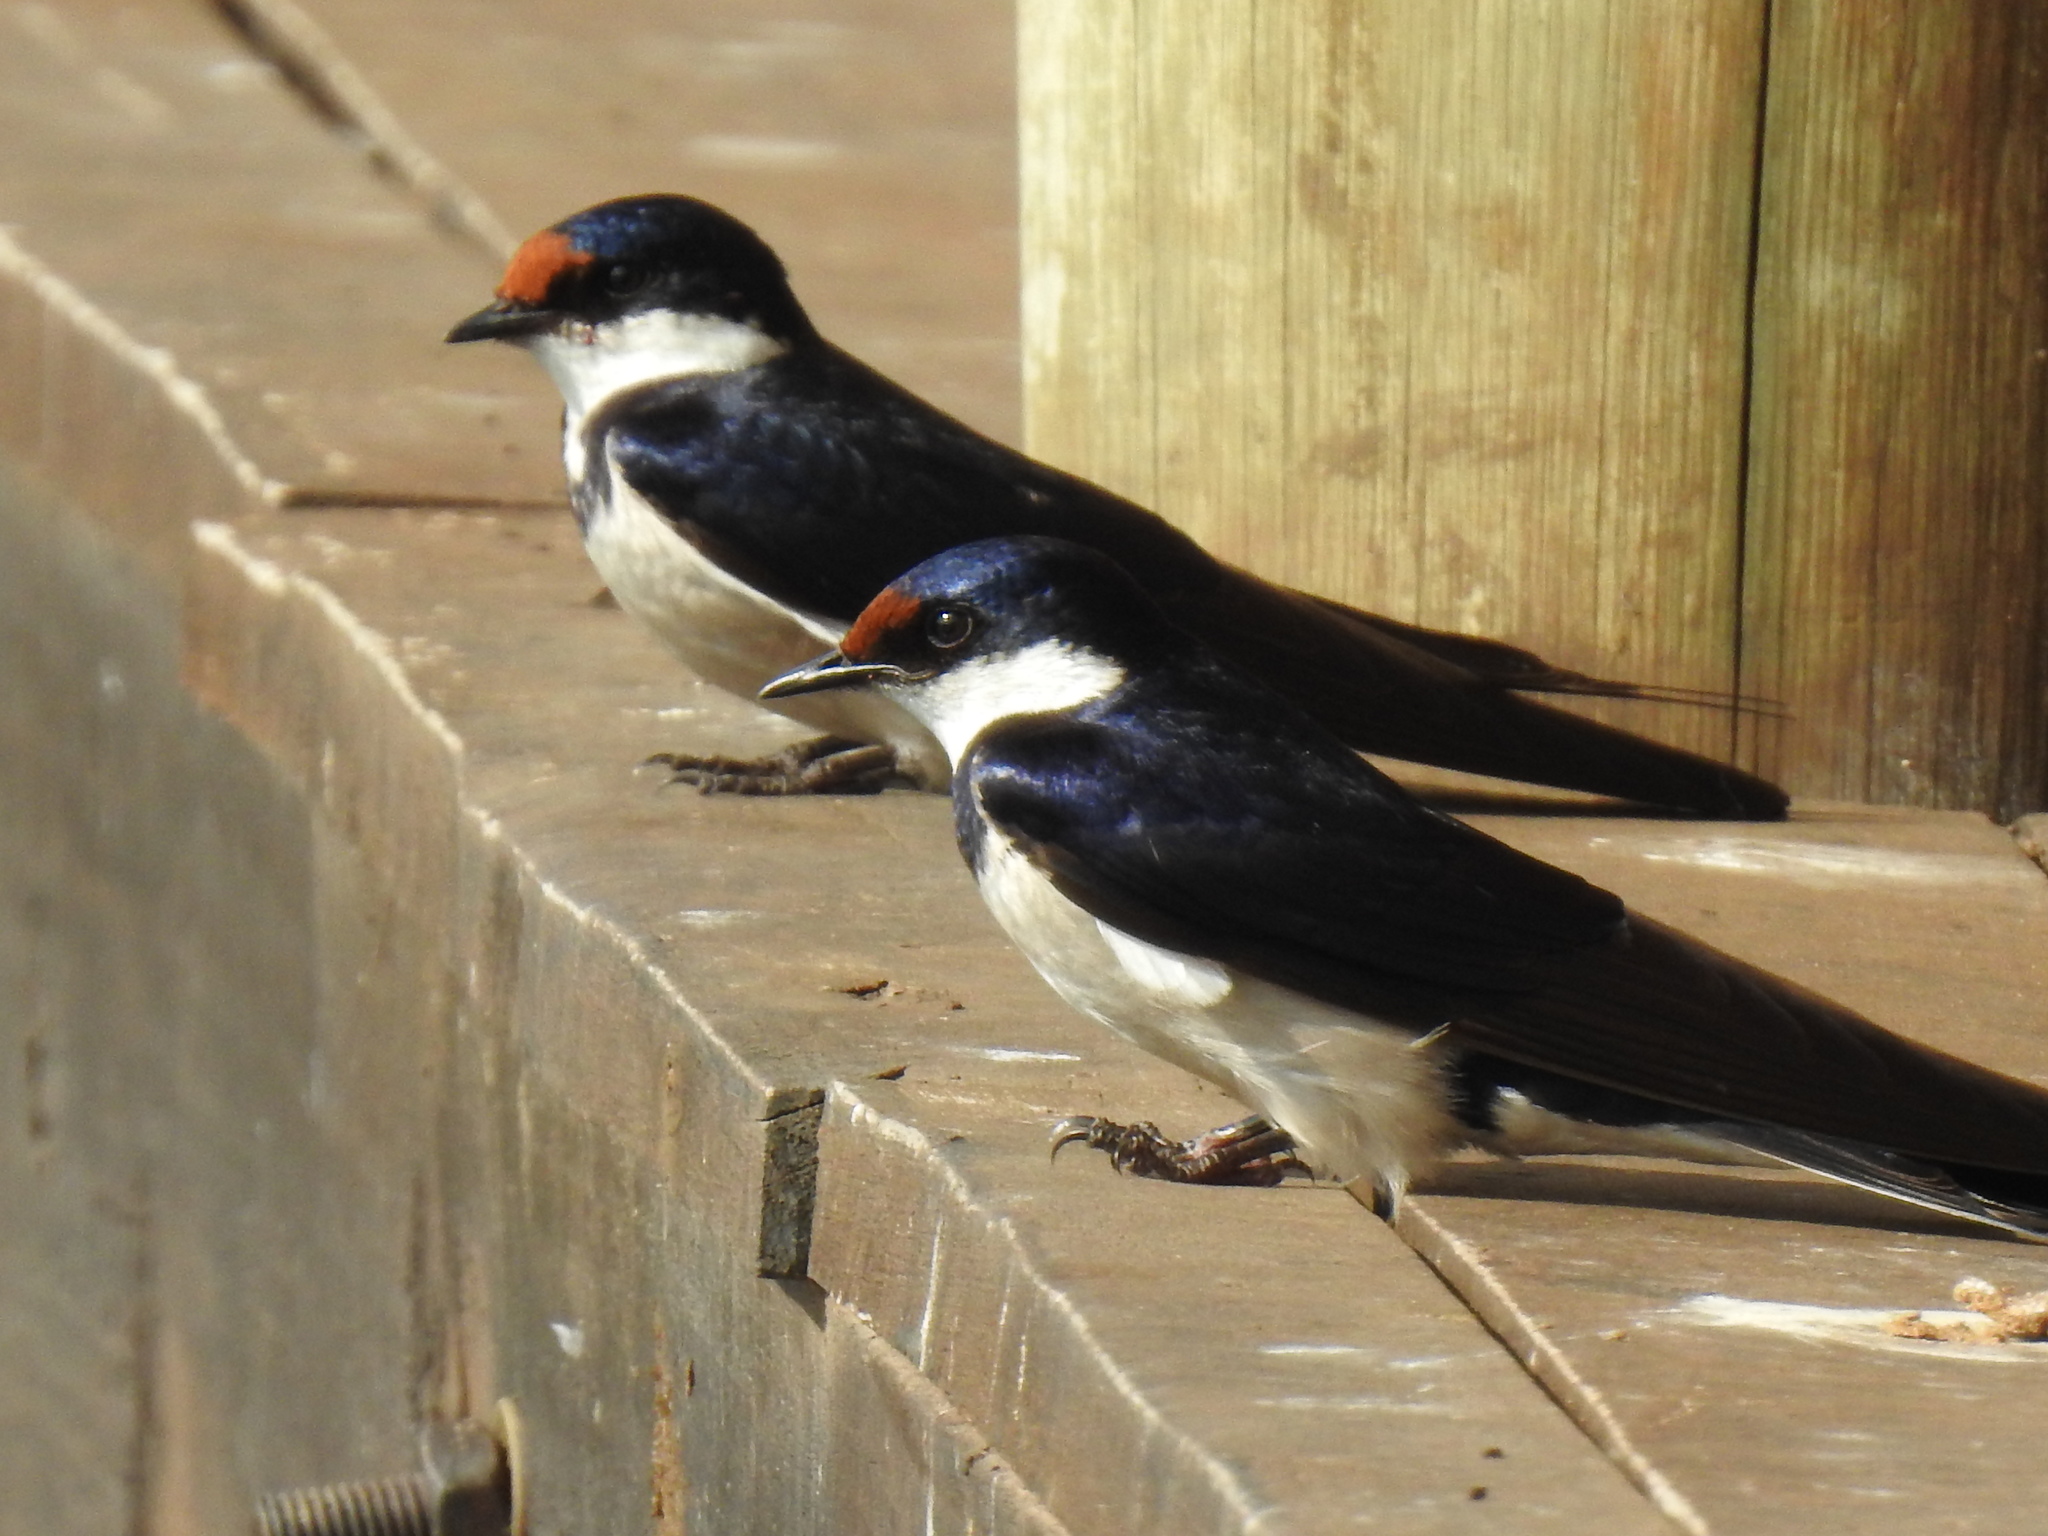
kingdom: Animalia
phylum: Chordata
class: Aves
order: Passeriformes
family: Hirundinidae
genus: Hirundo
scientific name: Hirundo albigularis
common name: White-throated swallow
